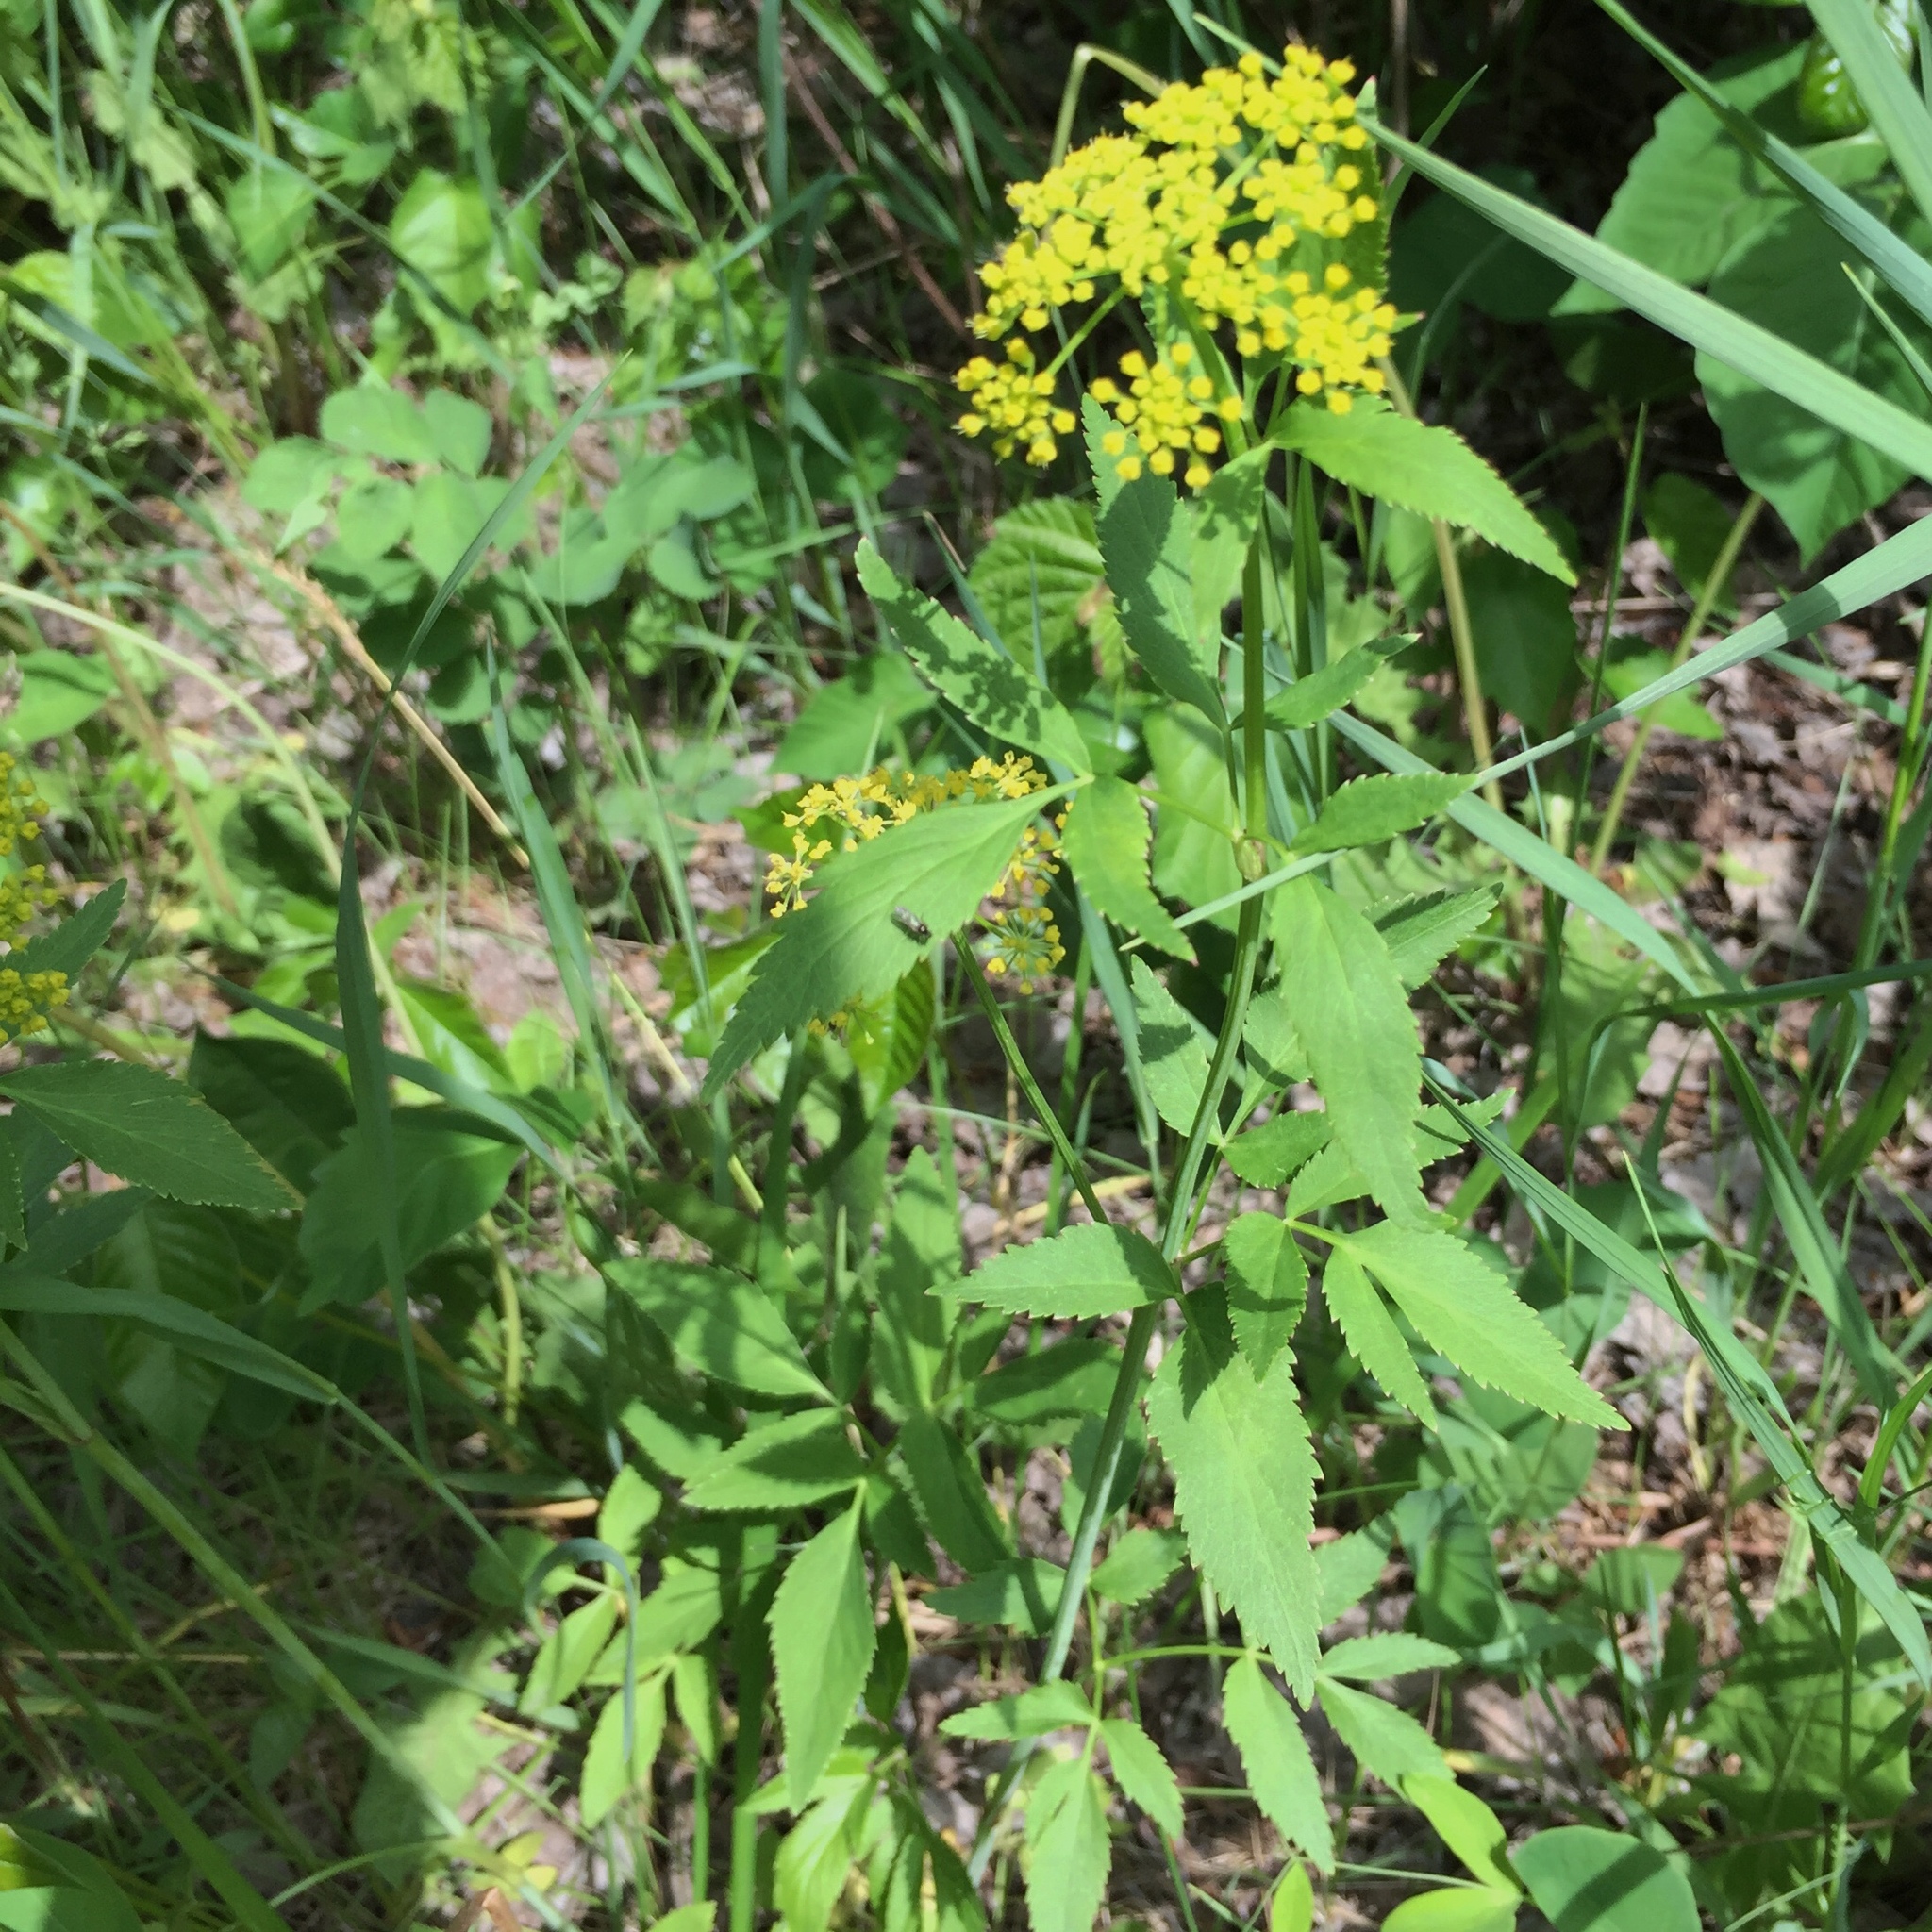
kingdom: Plantae
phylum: Tracheophyta
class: Magnoliopsida
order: Apiales
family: Apiaceae
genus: Zizia
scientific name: Zizia aurea
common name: Golden alexanders
